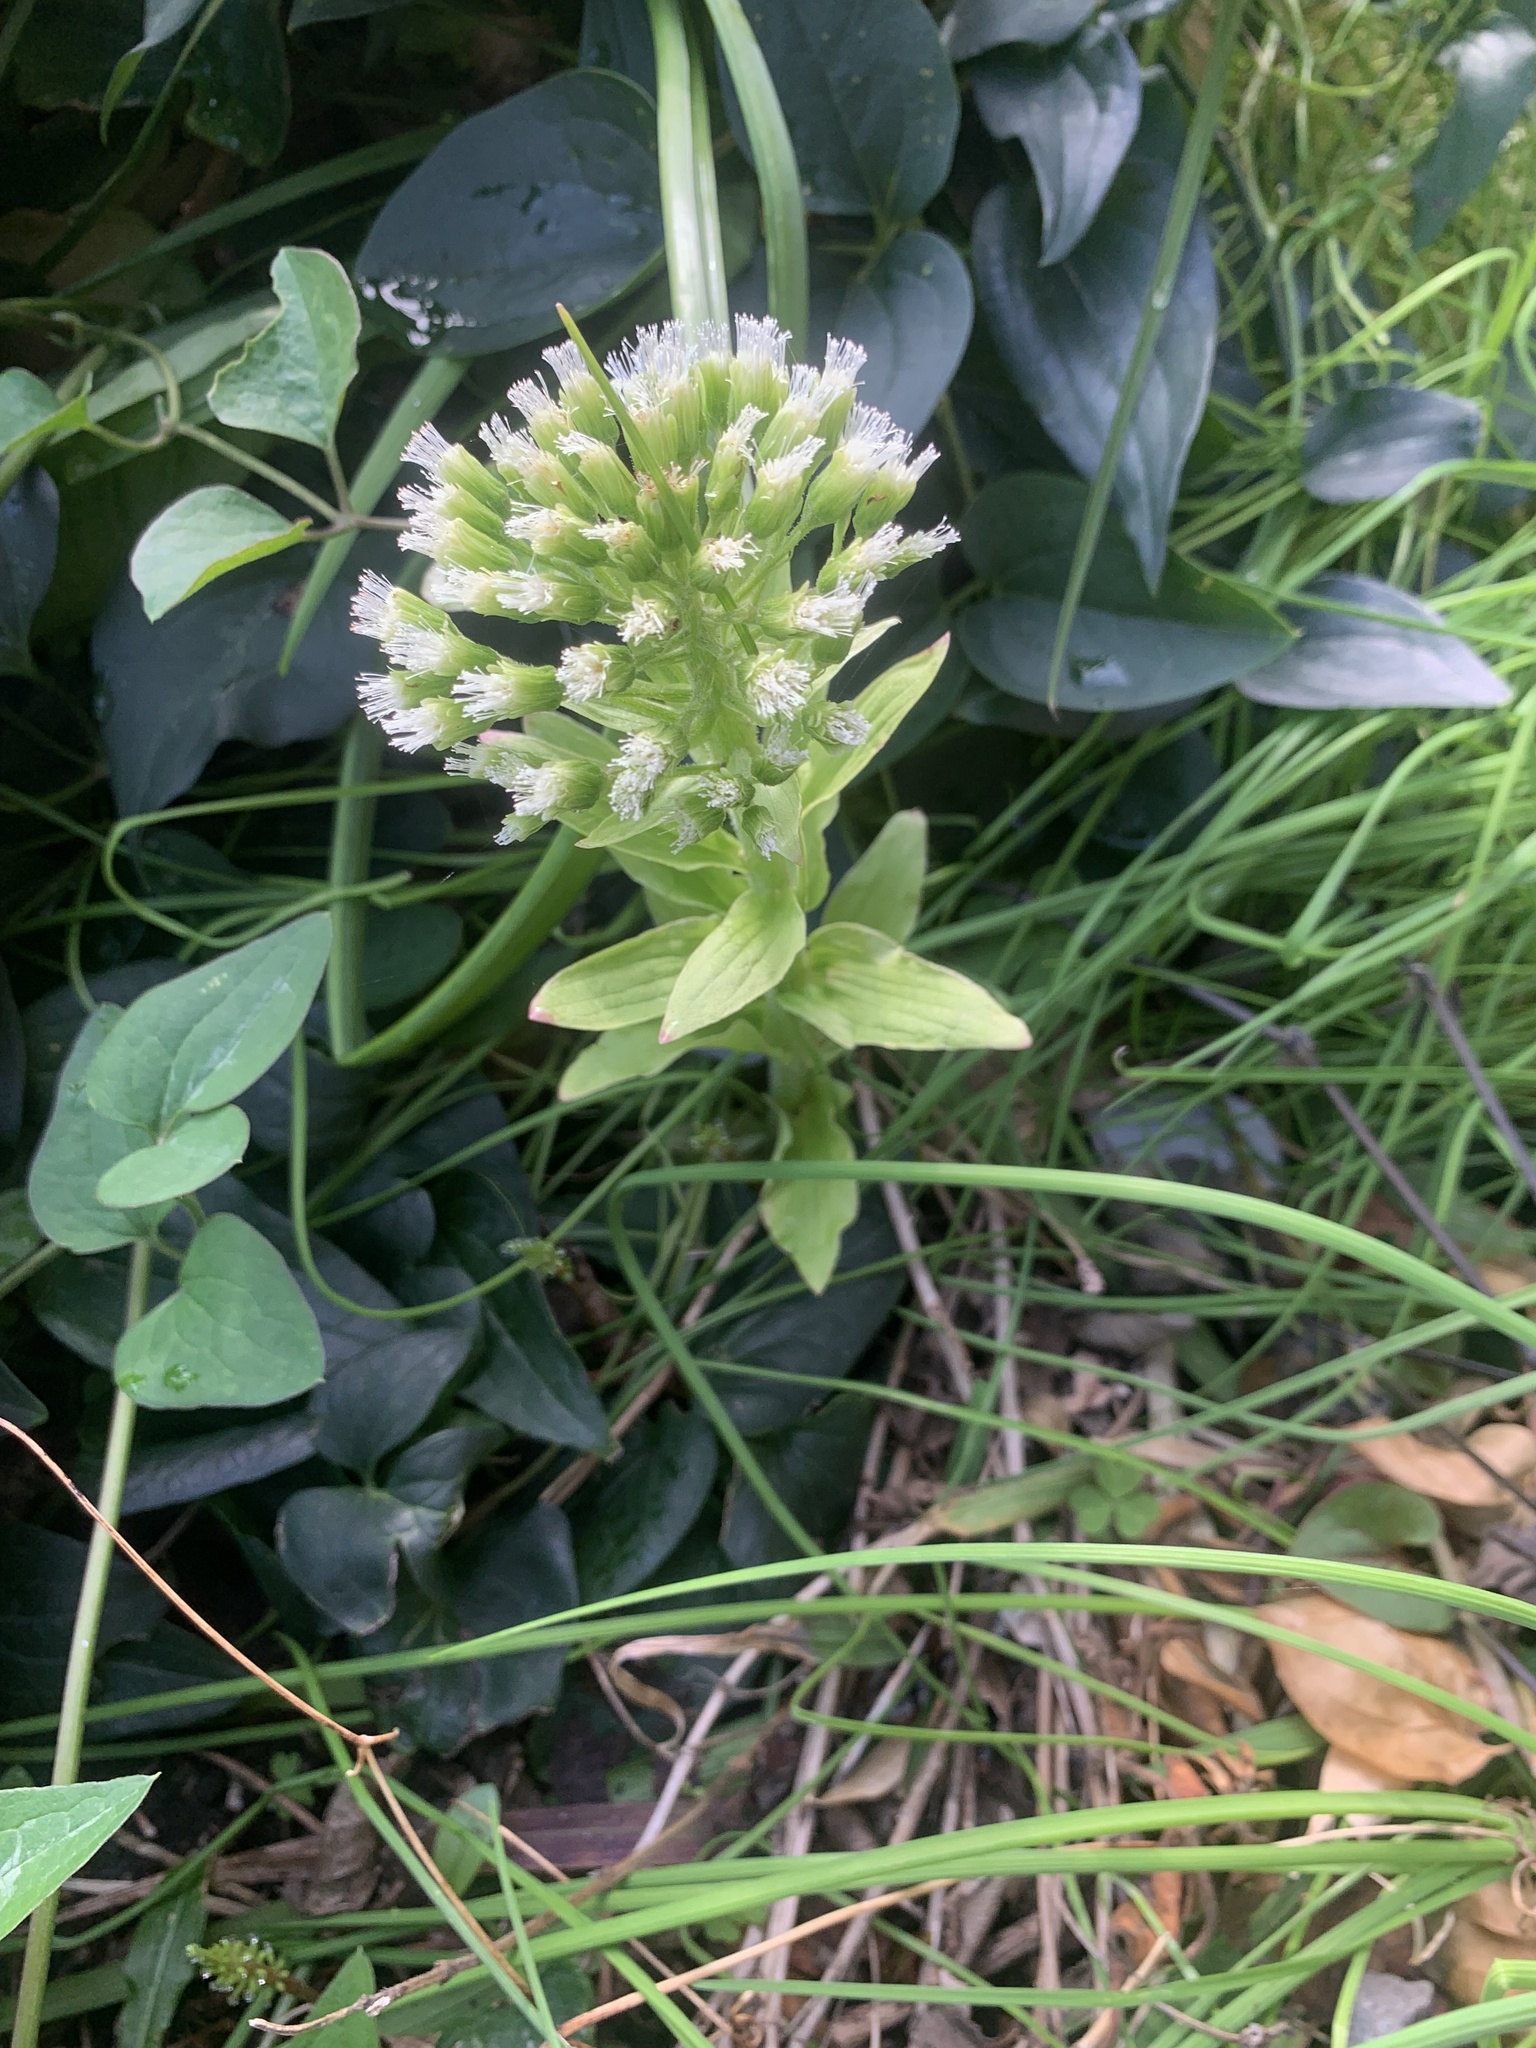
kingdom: Plantae
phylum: Tracheophyta
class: Magnoliopsida
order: Asterales
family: Asteraceae
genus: Petasites
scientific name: Petasites japonicus
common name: Giant butterbur
